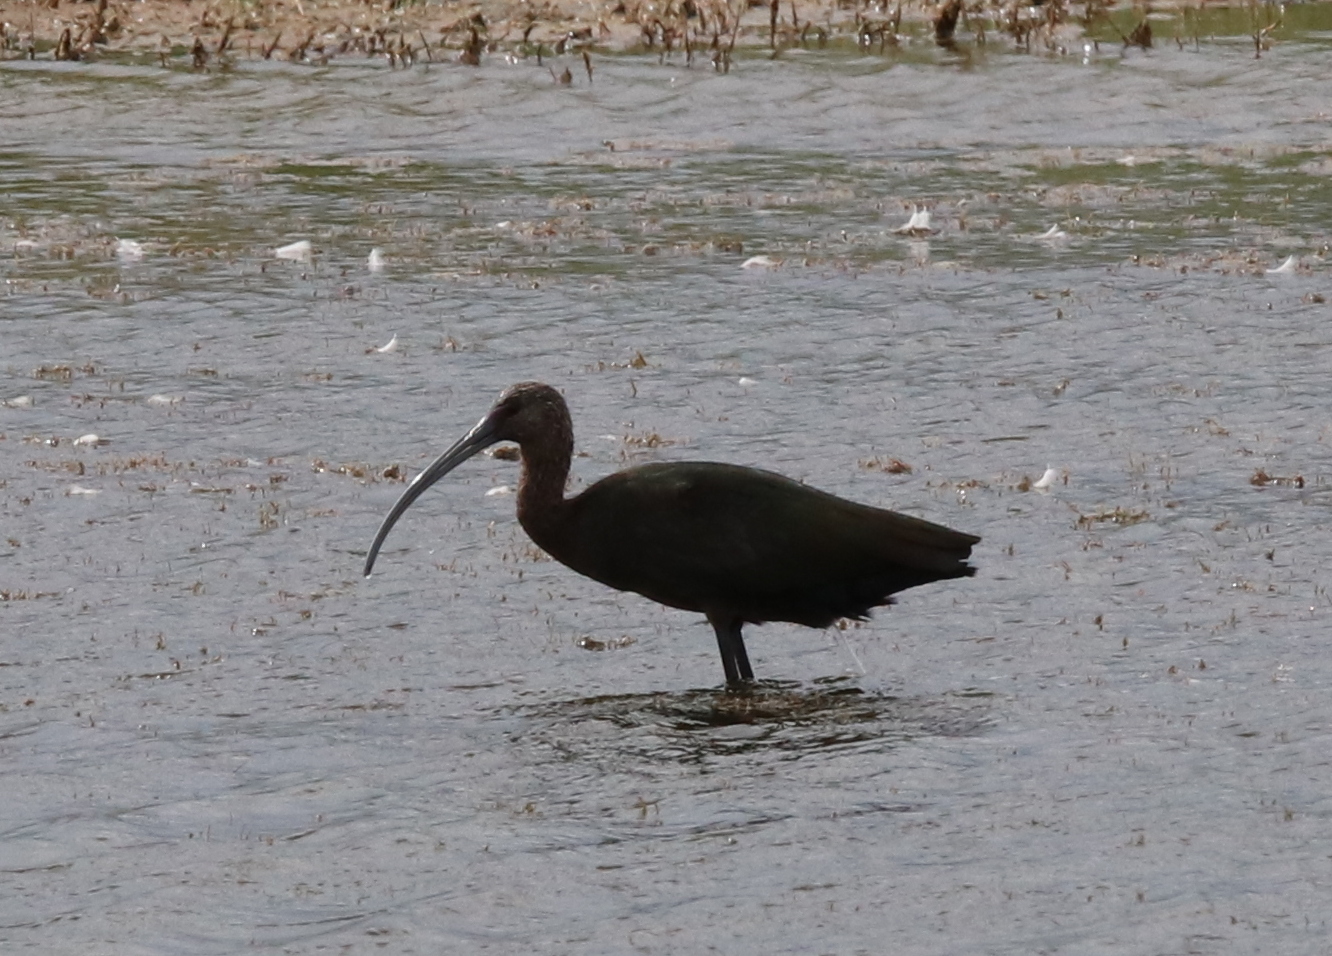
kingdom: Animalia
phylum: Chordata
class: Aves
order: Pelecaniformes
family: Threskiornithidae
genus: Plegadis
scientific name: Plegadis chihi
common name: White-faced ibis
